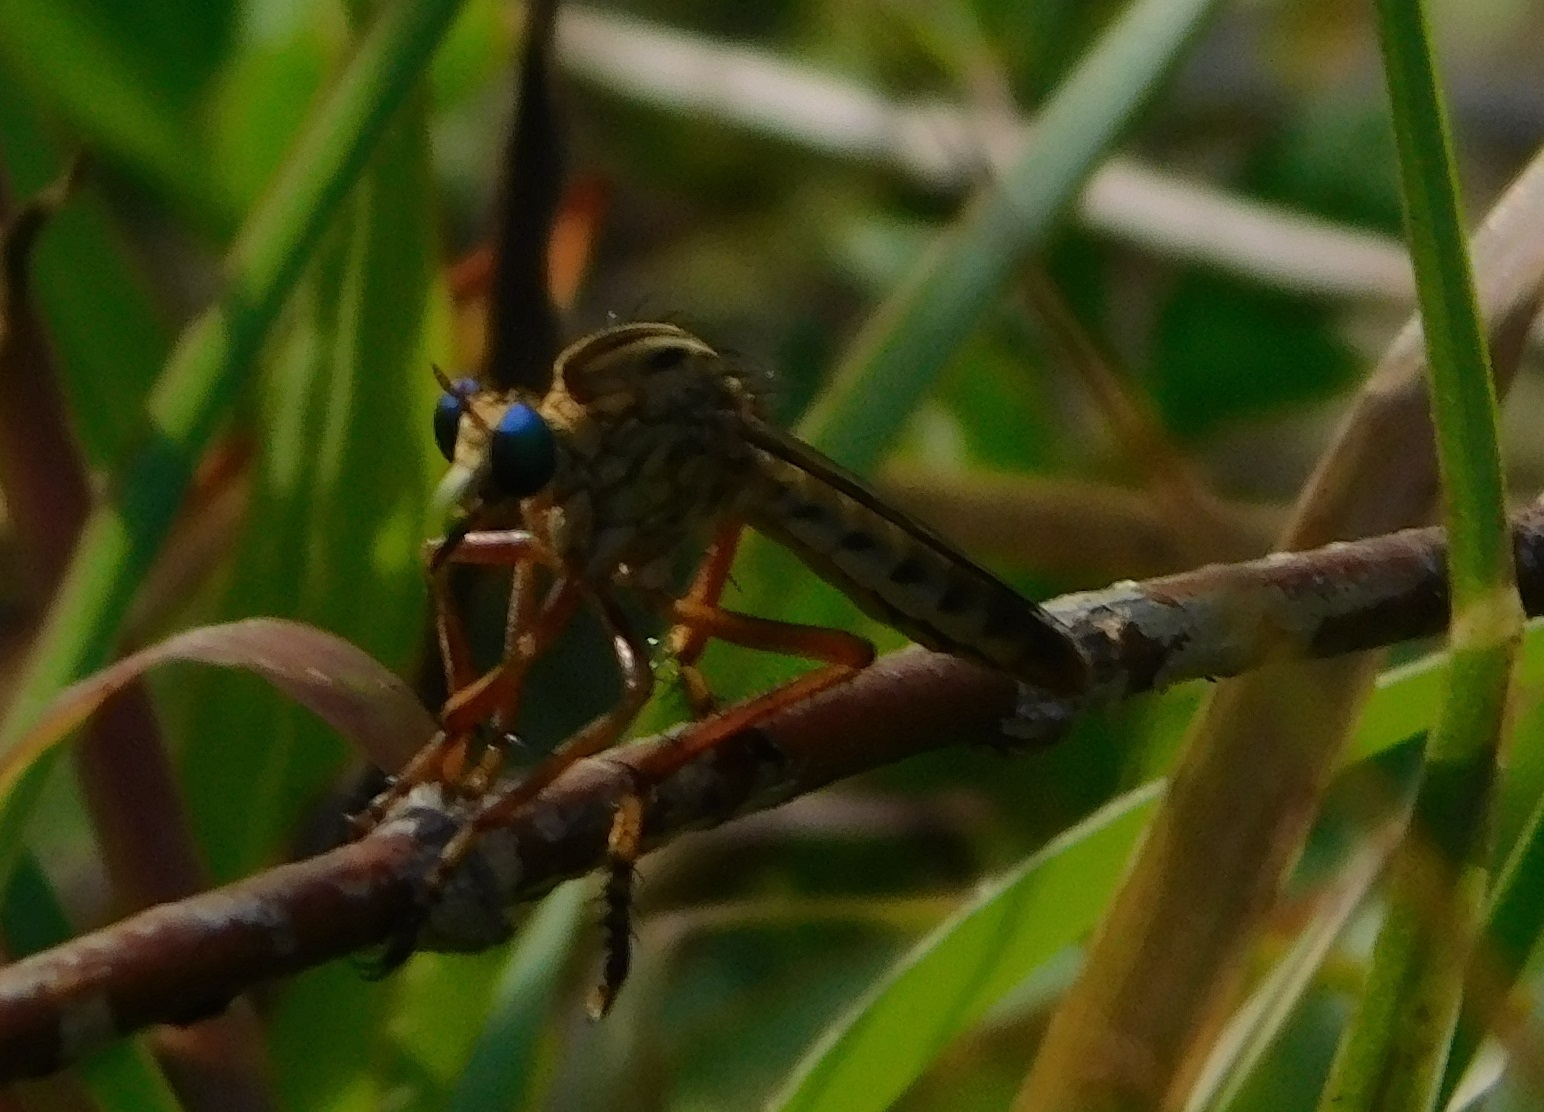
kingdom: Animalia
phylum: Arthropoda
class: Insecta
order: Diptera
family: Asilidae
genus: Diogmites
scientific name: Diogmites esuriens
